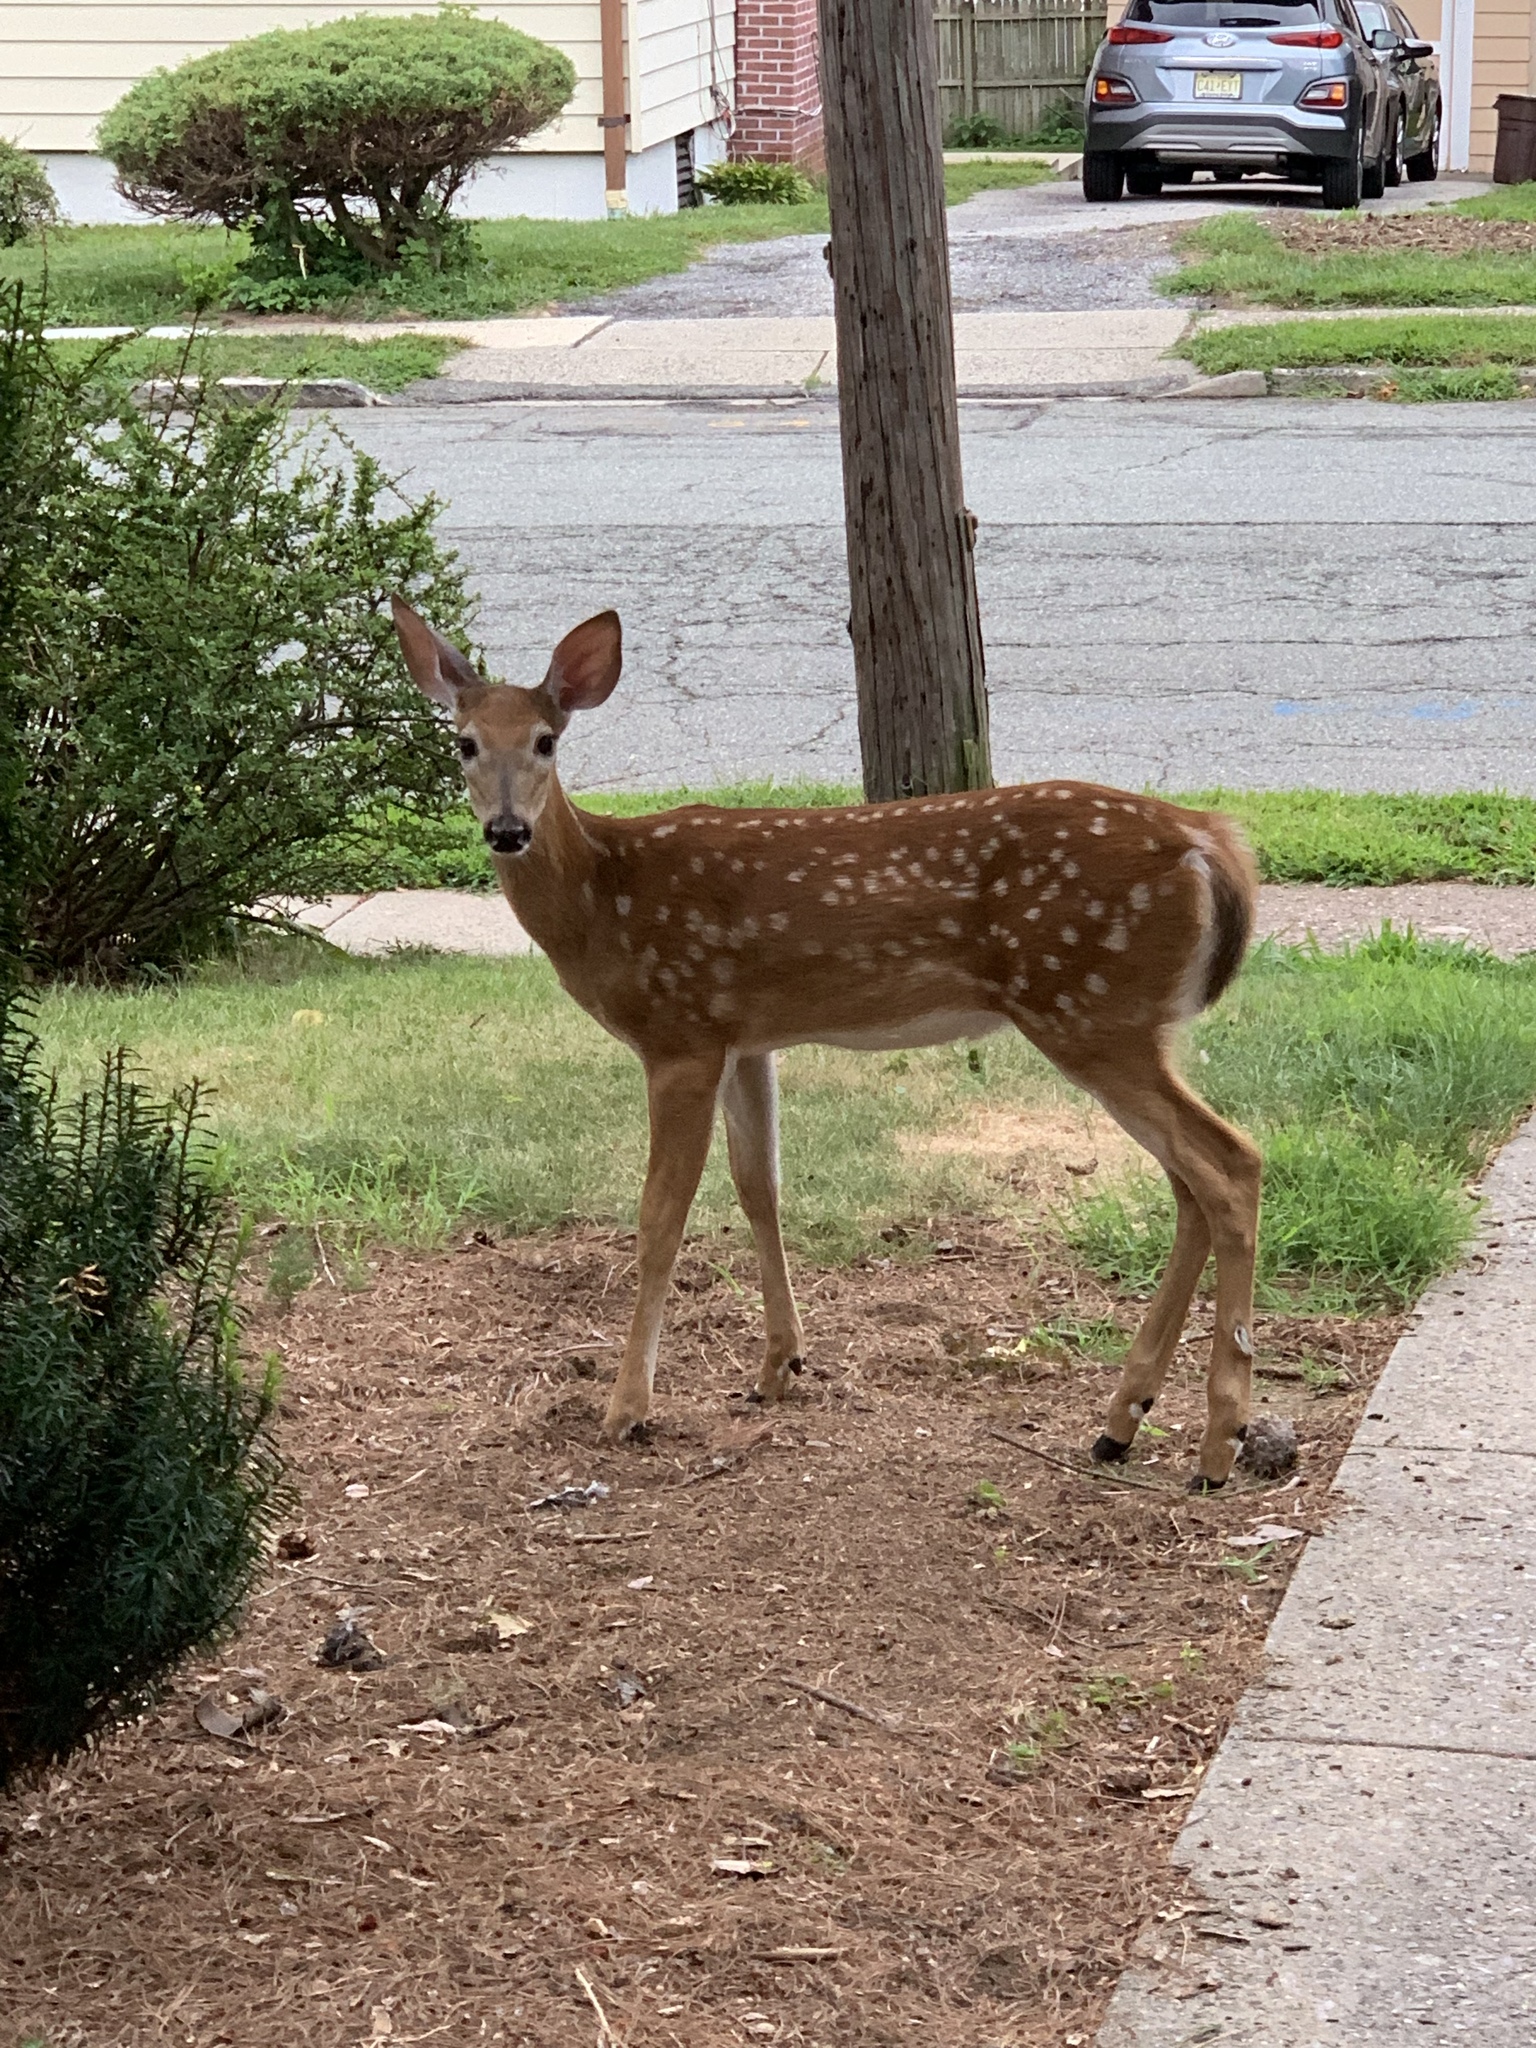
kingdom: Animalia
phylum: Chordata
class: Mammalia
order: Artiodactyla
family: Cervidae
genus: Odocoileus
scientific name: Odocoileus virginianus
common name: White-tailed deer
